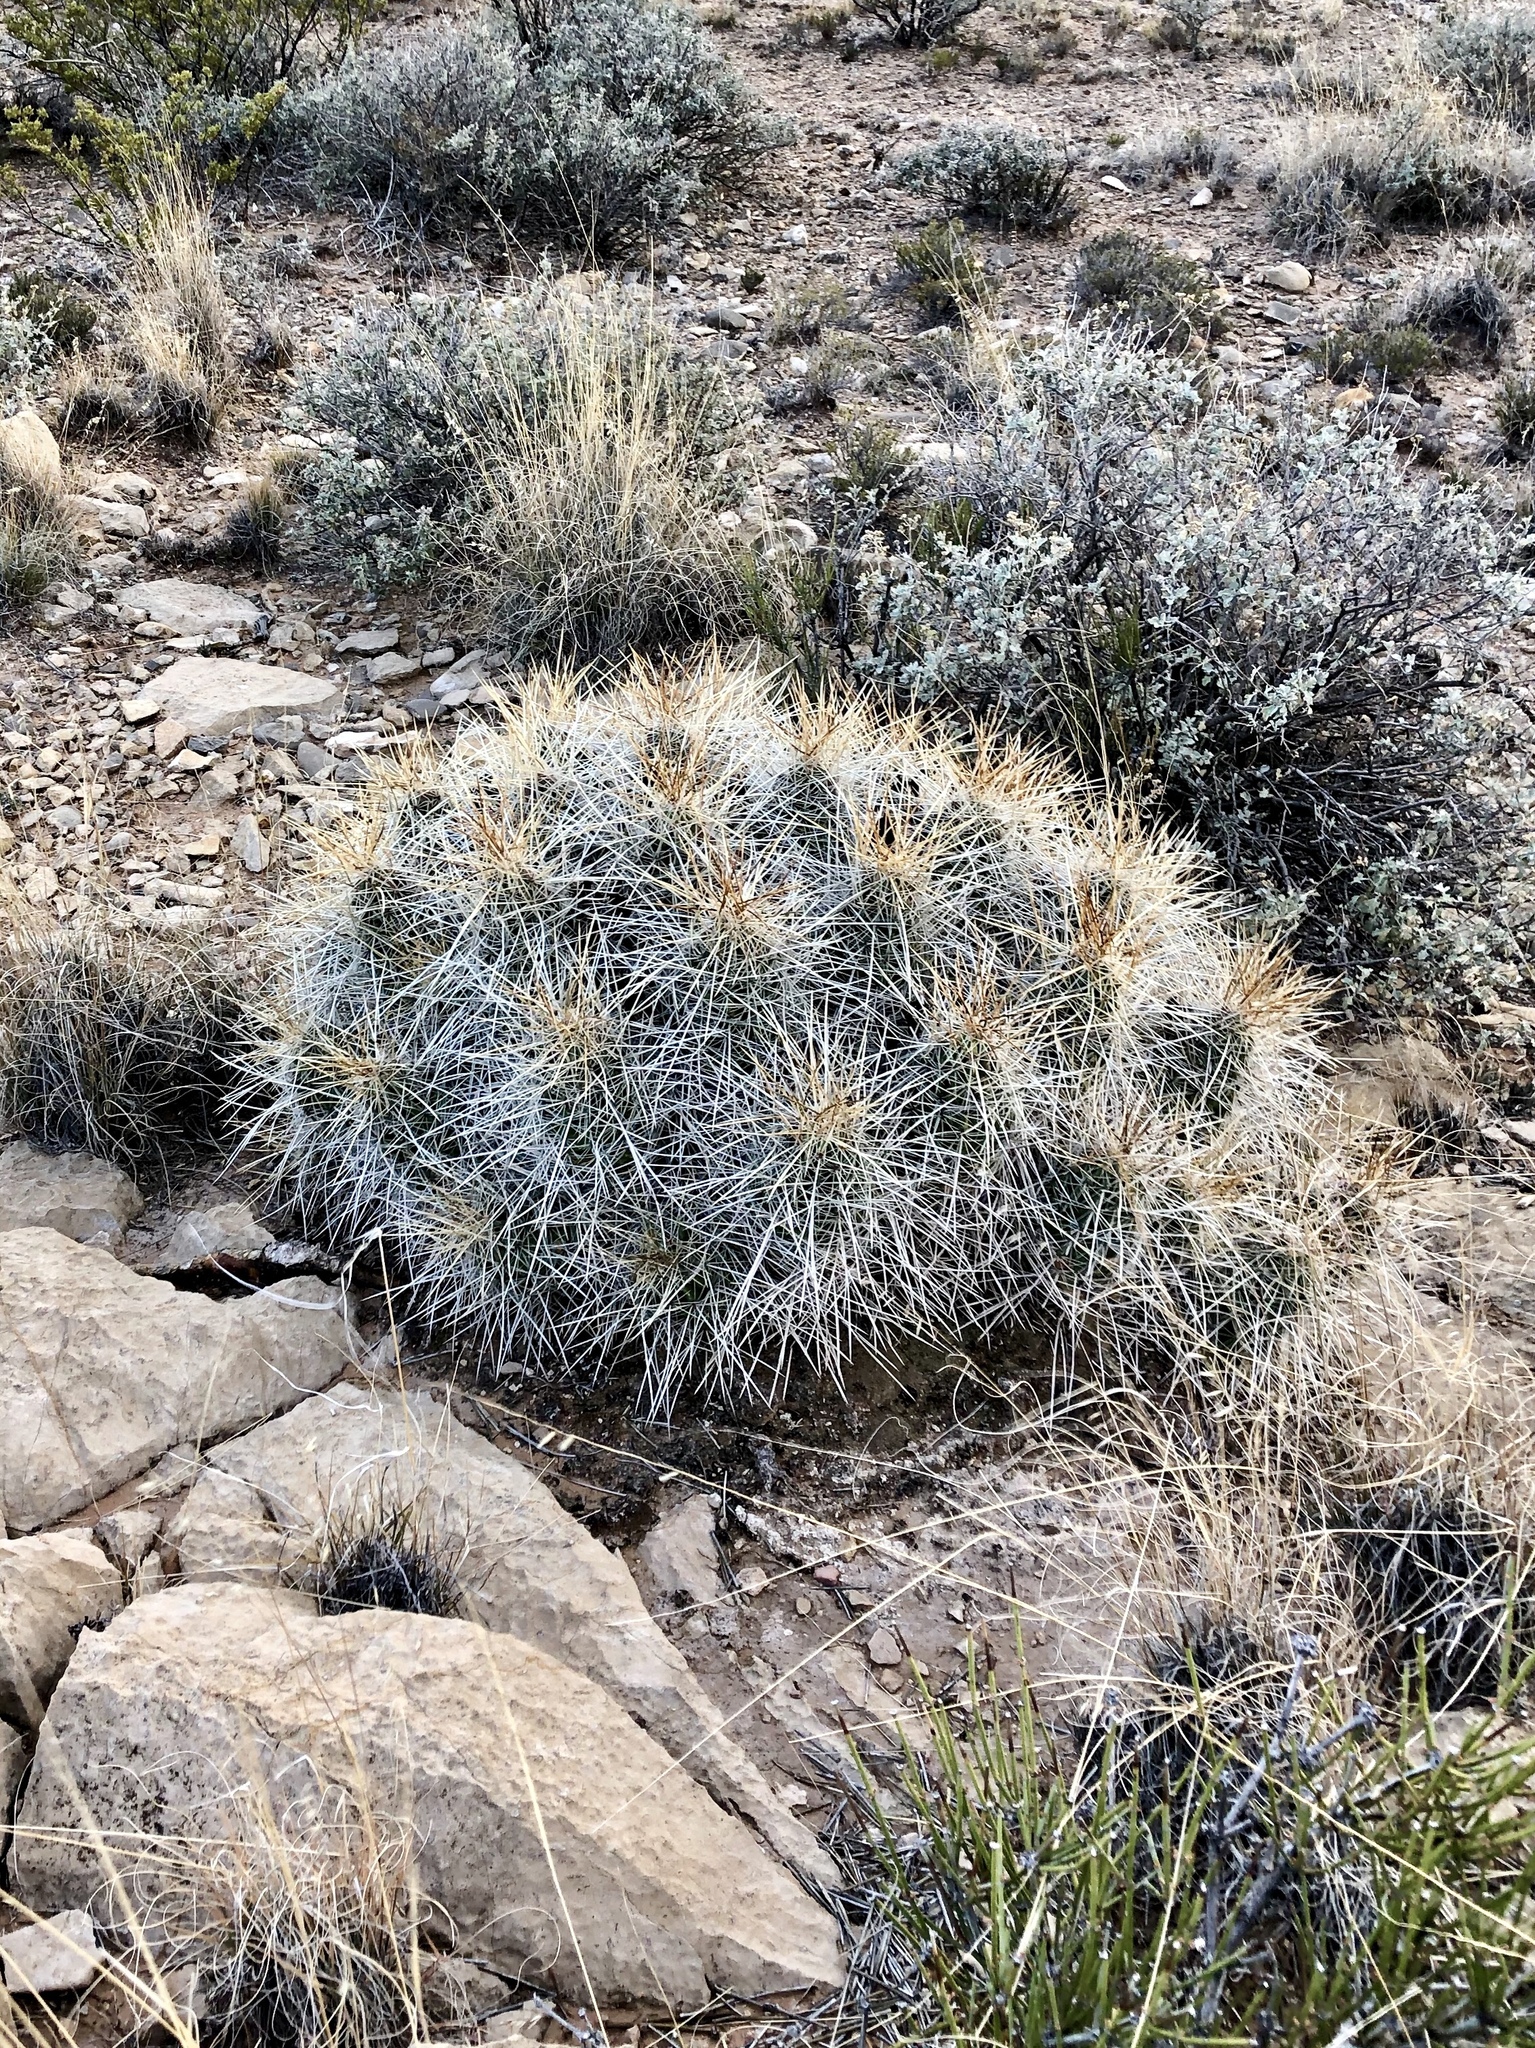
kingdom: Plantae
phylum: Tracheophyta
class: Magnoliopsida
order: Caryophyllales
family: Cactaceae
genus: Echinocereus
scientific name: Echinocereus stramineus
